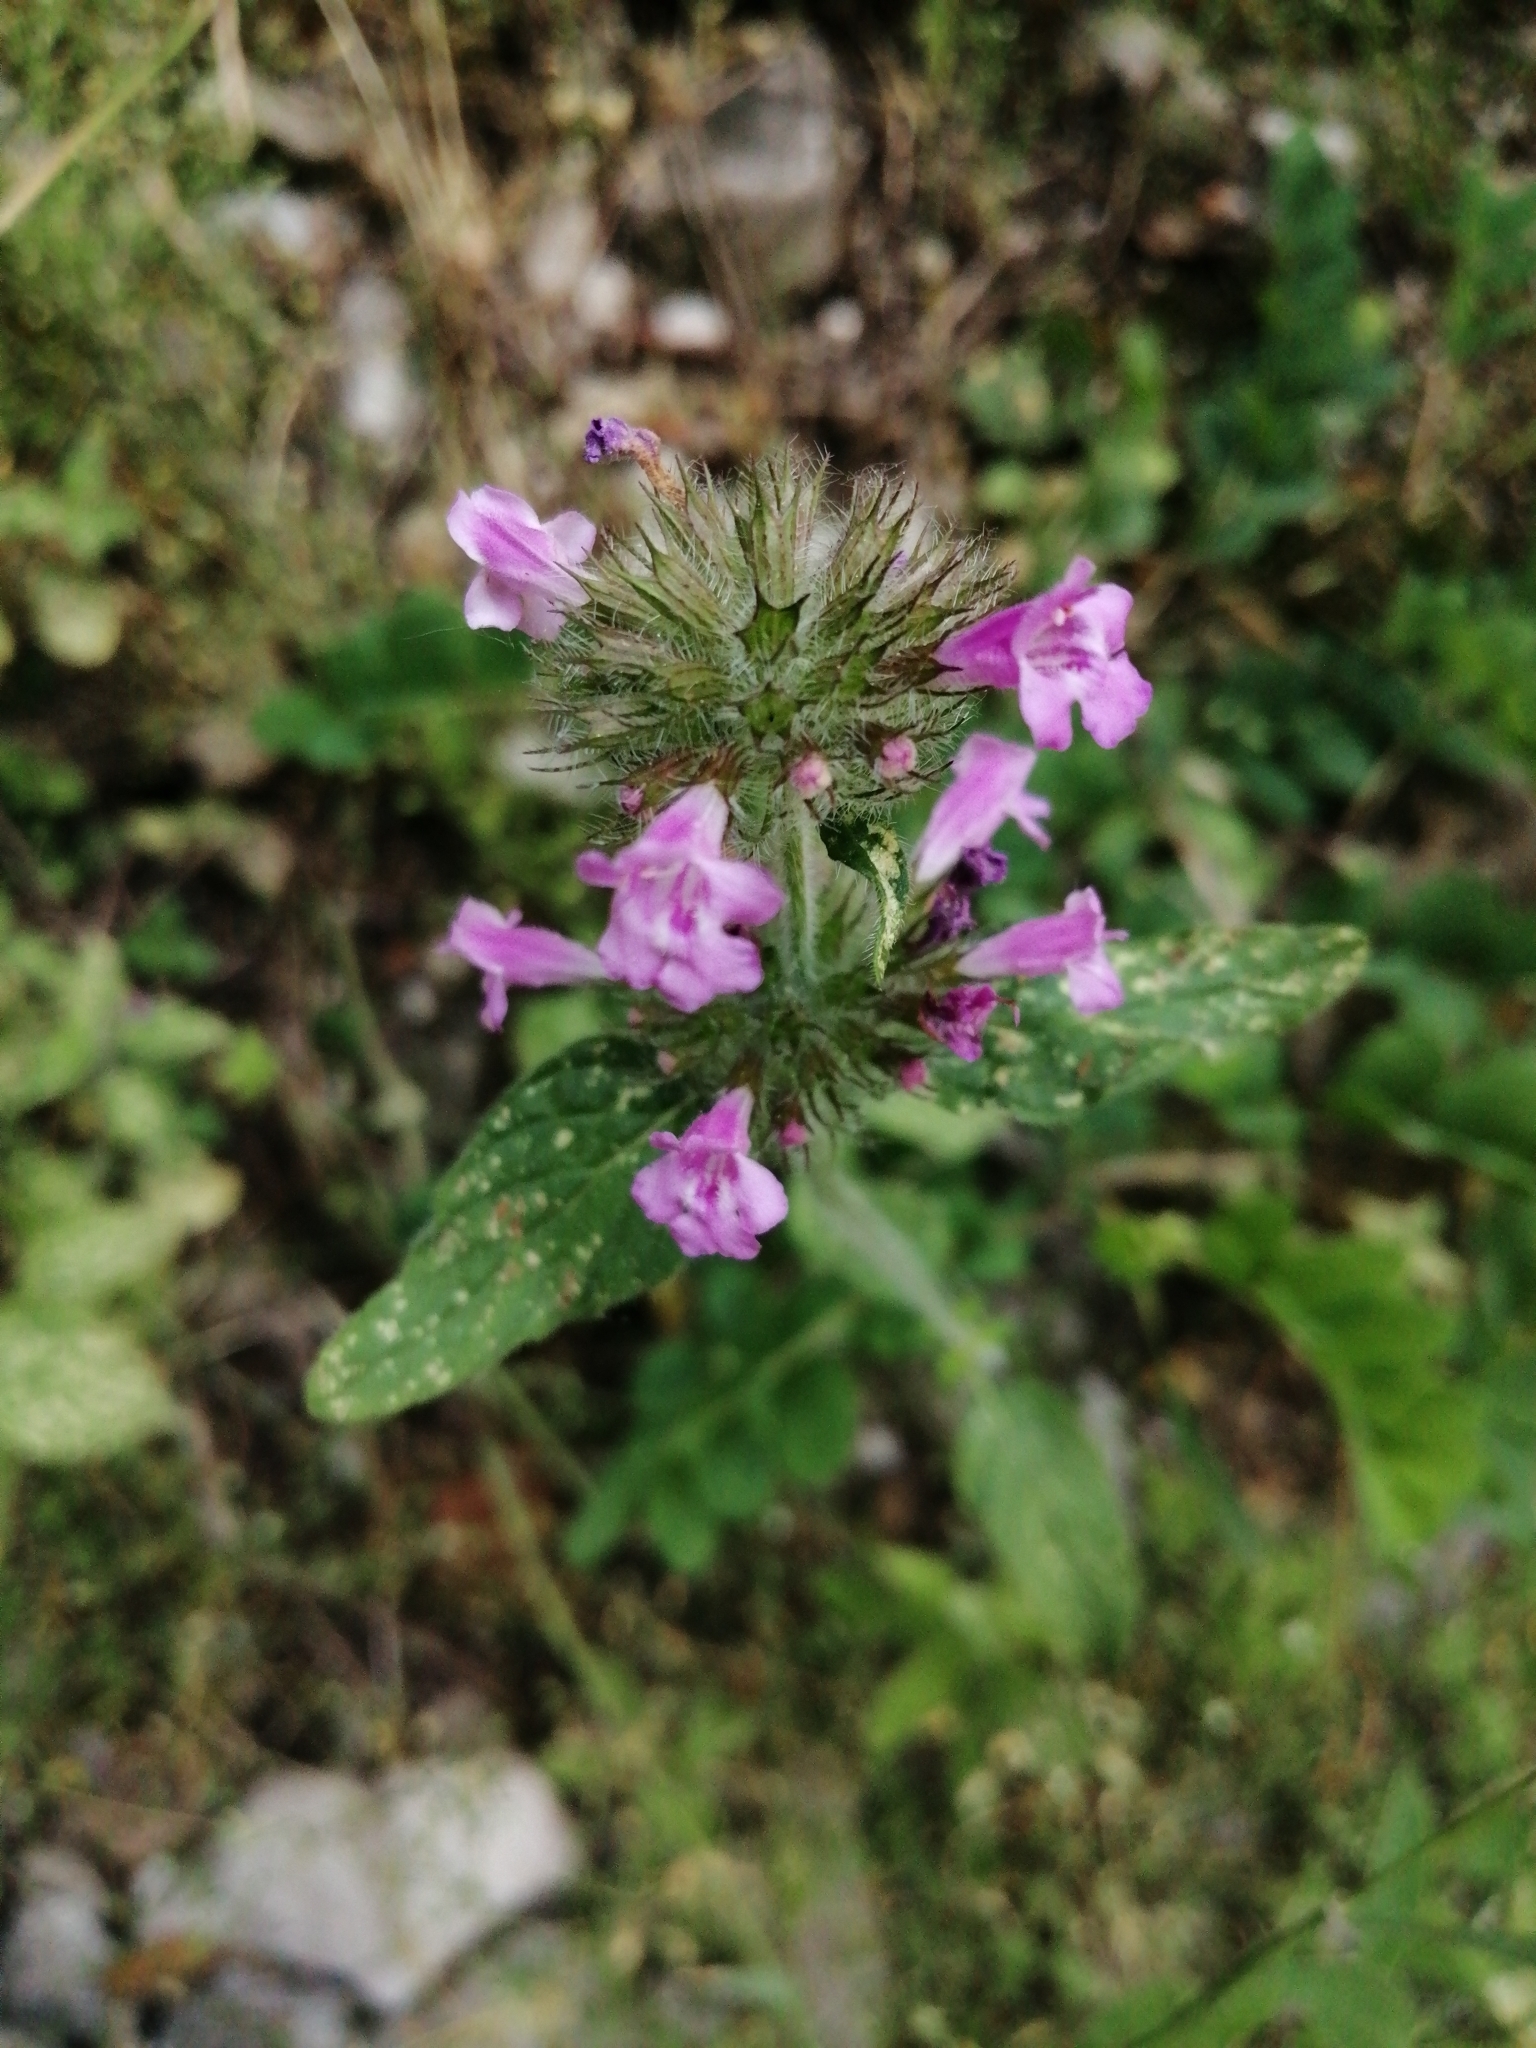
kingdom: Plantae
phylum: Tracheophyta
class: Magnoliopsida
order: Lamiales
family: Lamiaceae
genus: Clinopodium
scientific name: Clinopodium vulgare
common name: Wild basil
